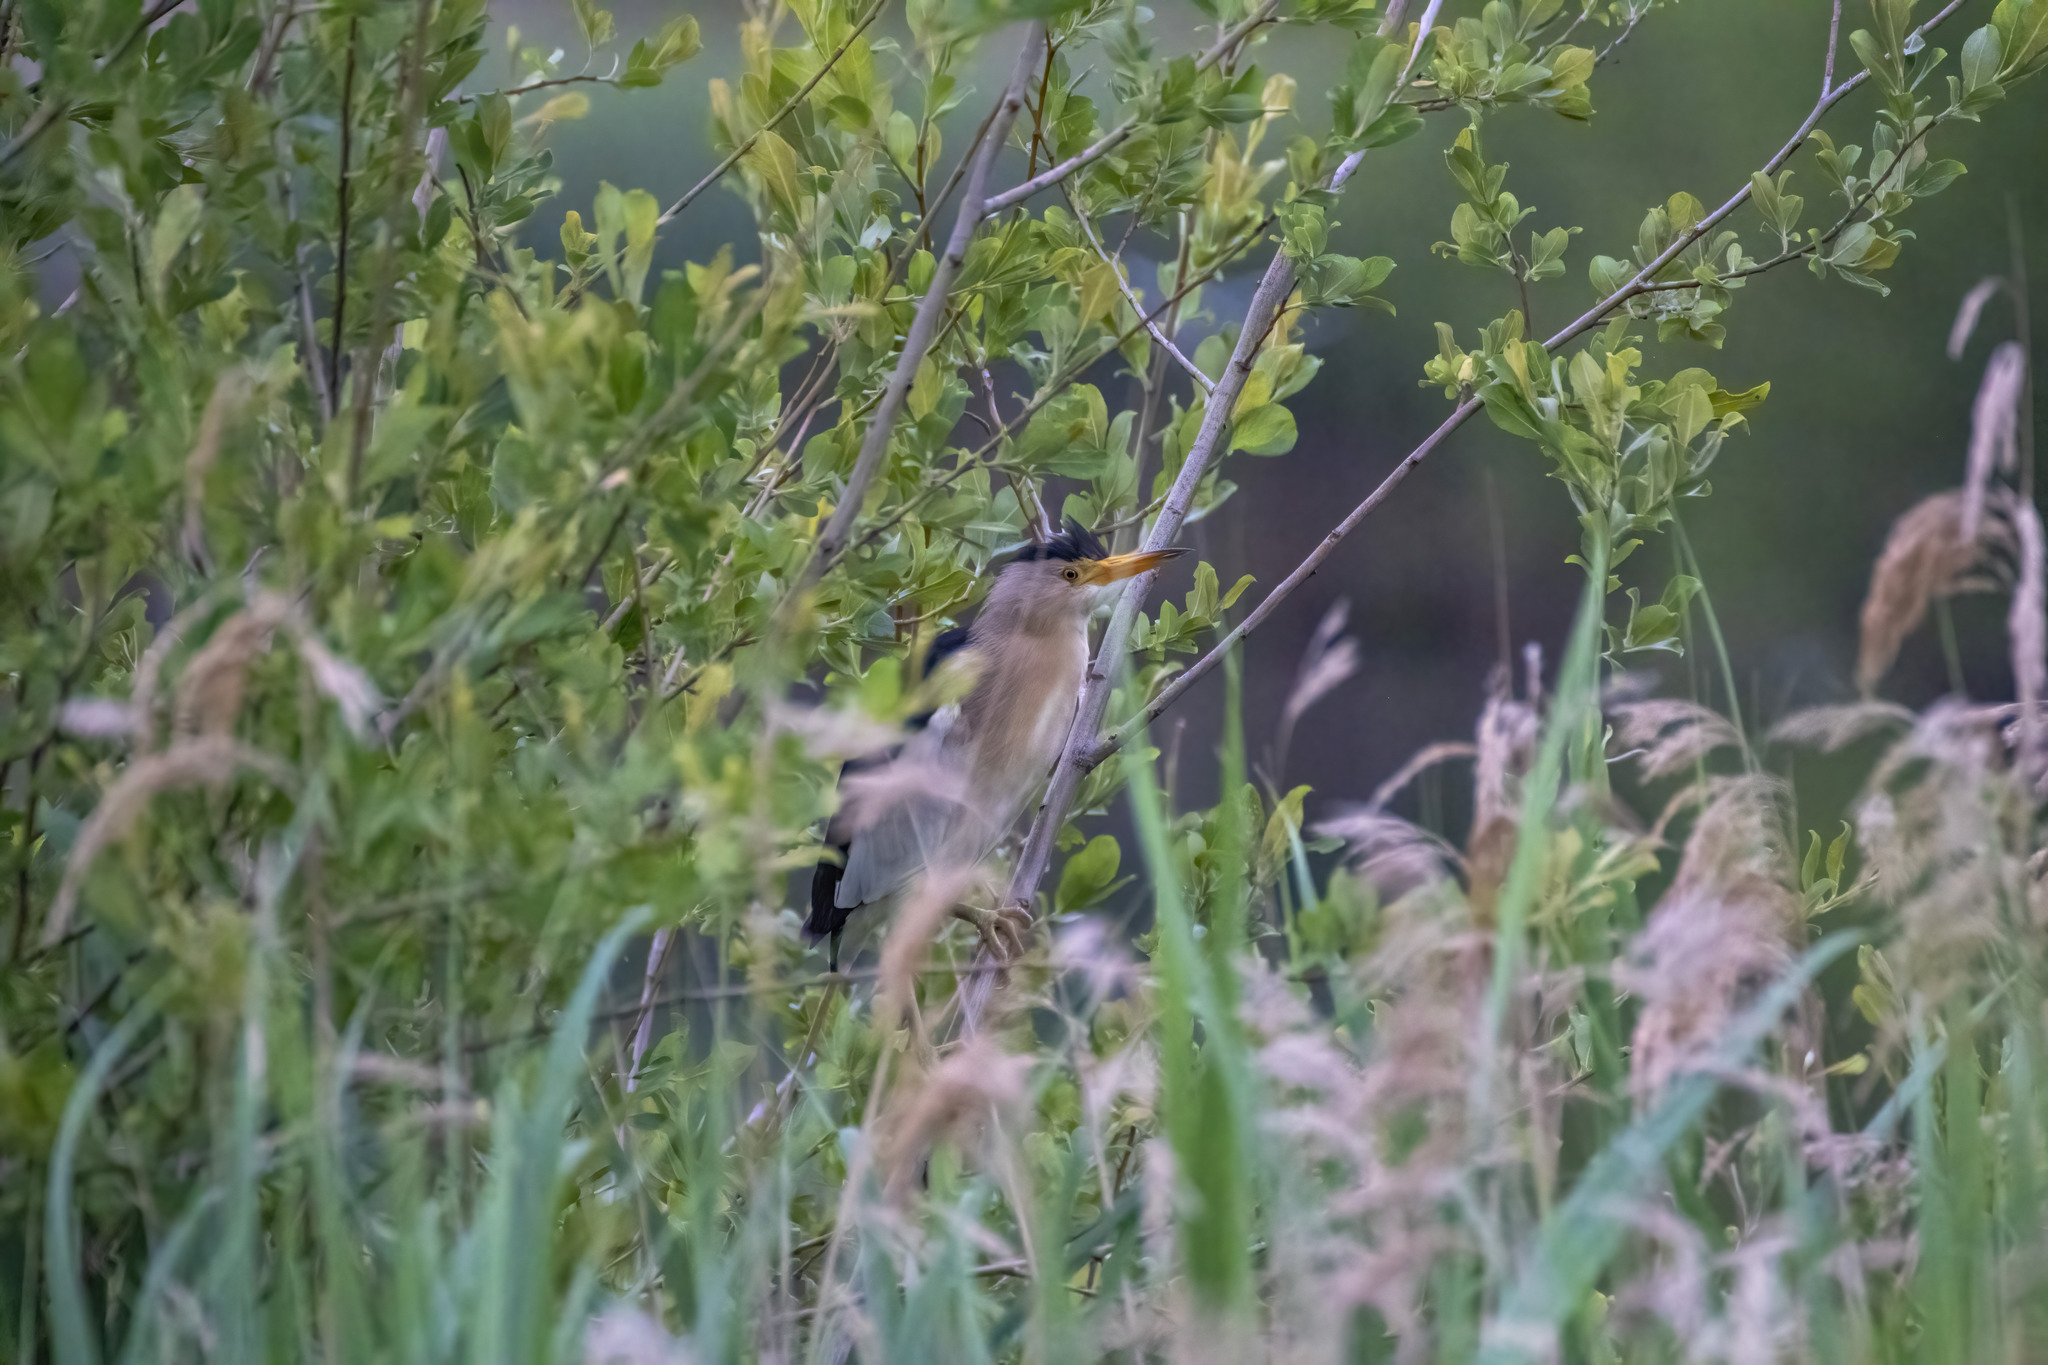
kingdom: Animalia
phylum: Chordata
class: Aves
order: Pelecaniformes
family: Ardeidae
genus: Ixobrychus
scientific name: Ixobrychus minutus
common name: Little bittern
